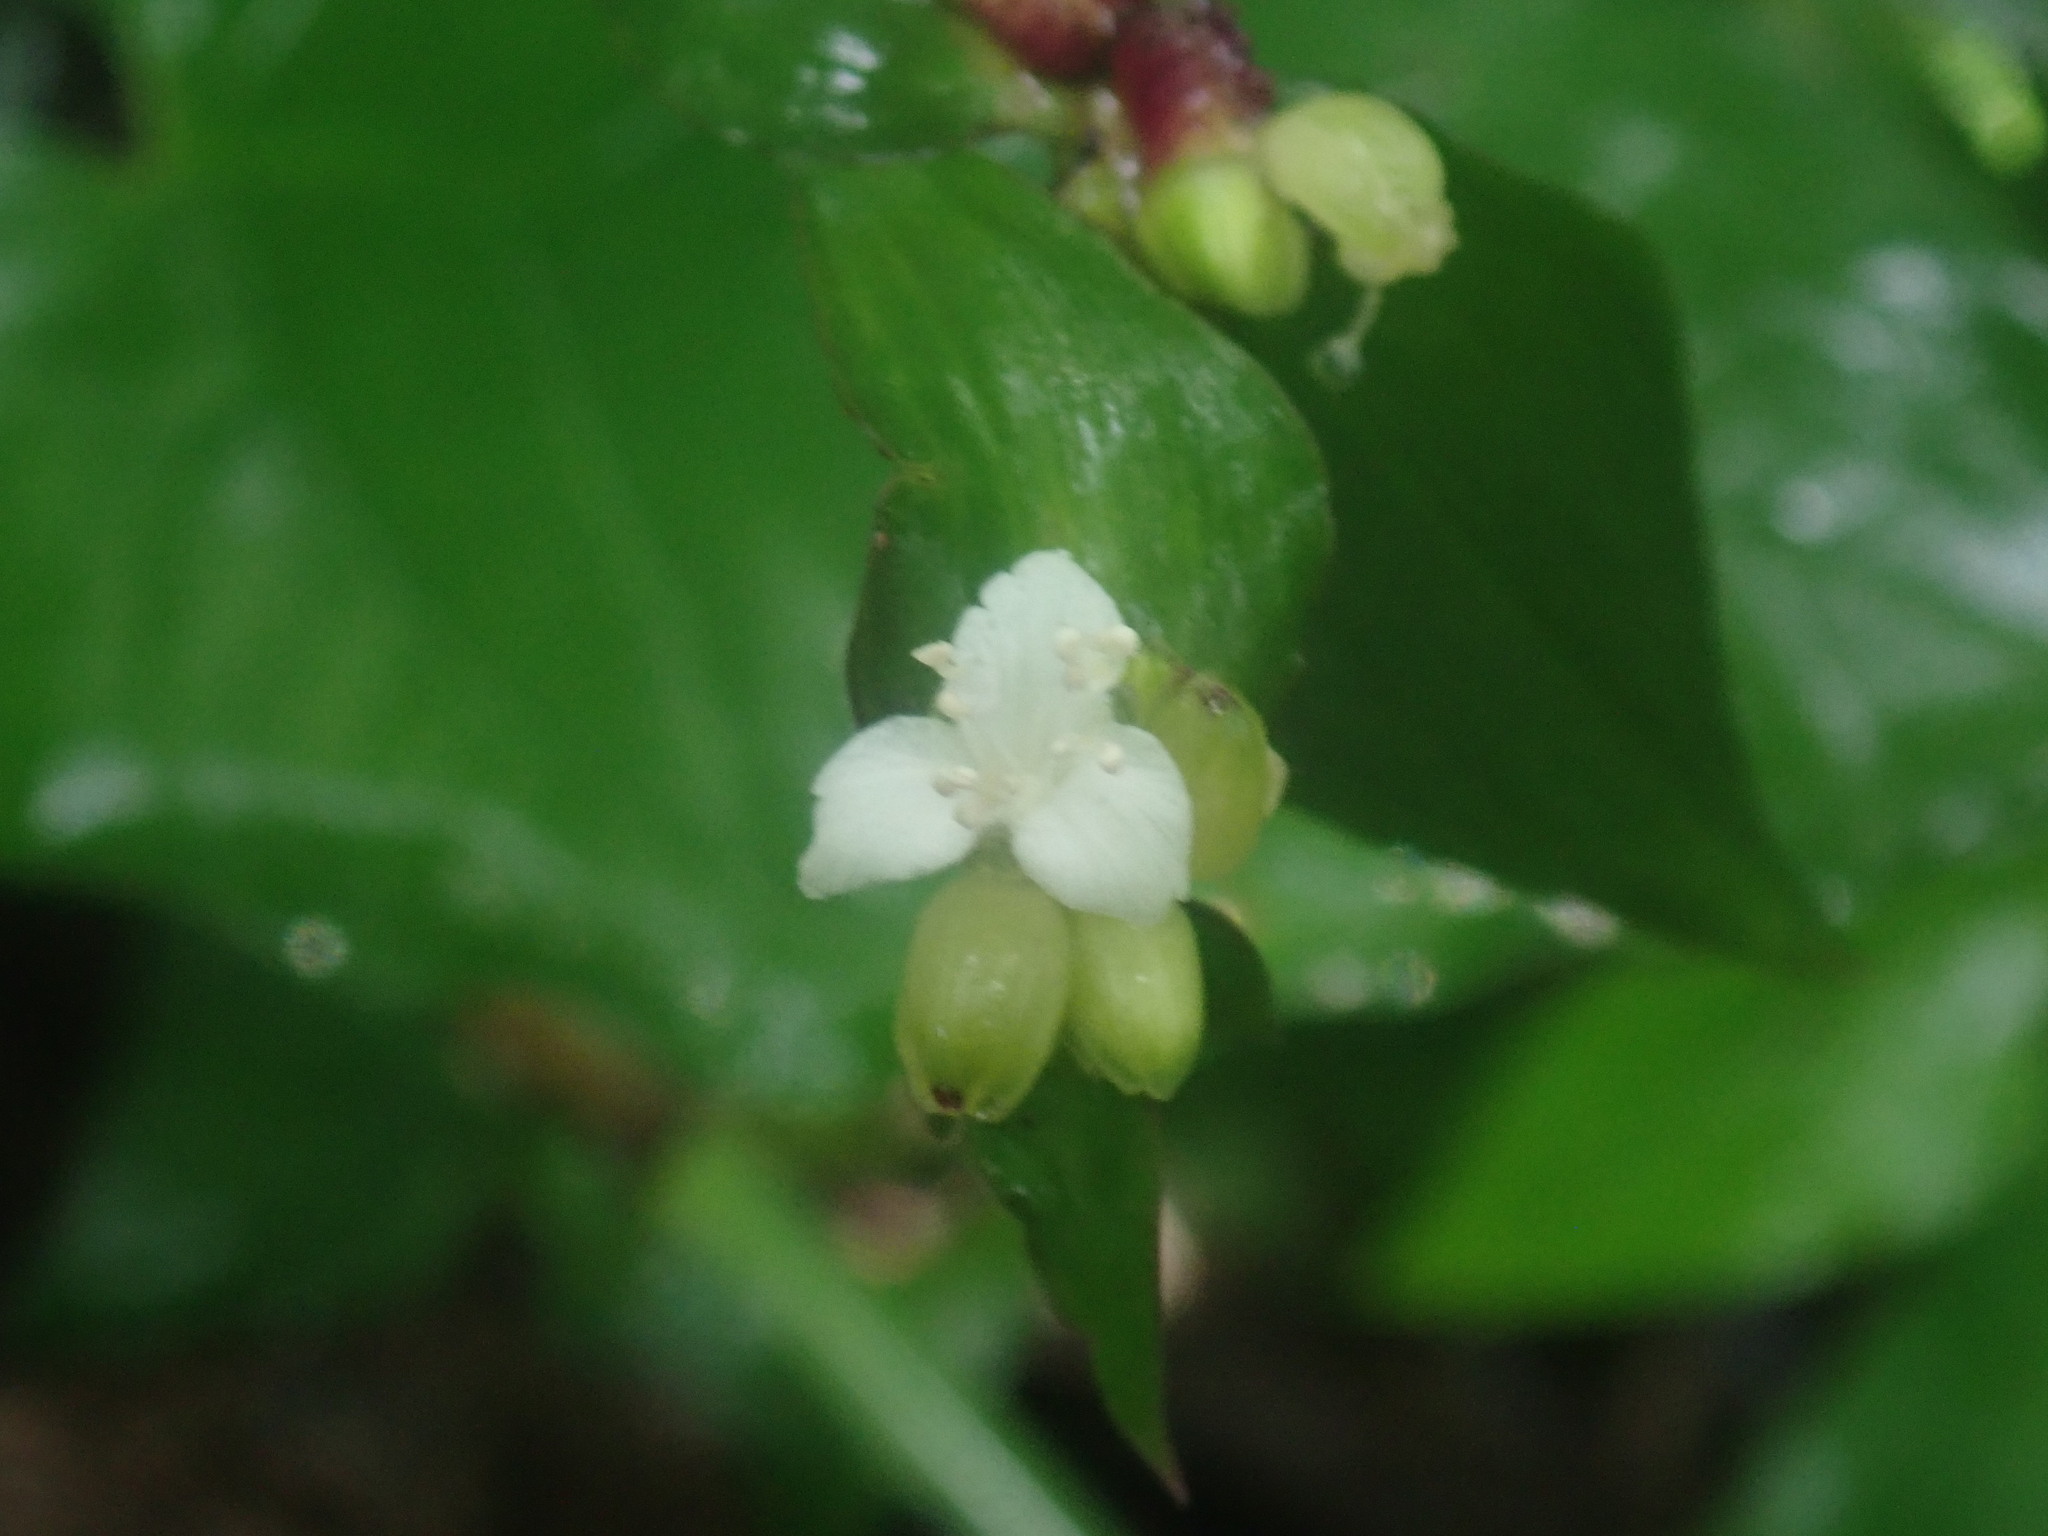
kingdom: Plantae
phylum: Tracheophyta
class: Liliopsida
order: Commelinales
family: Commelinaceae
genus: Tradescantia
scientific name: Tradescantia zanonia
